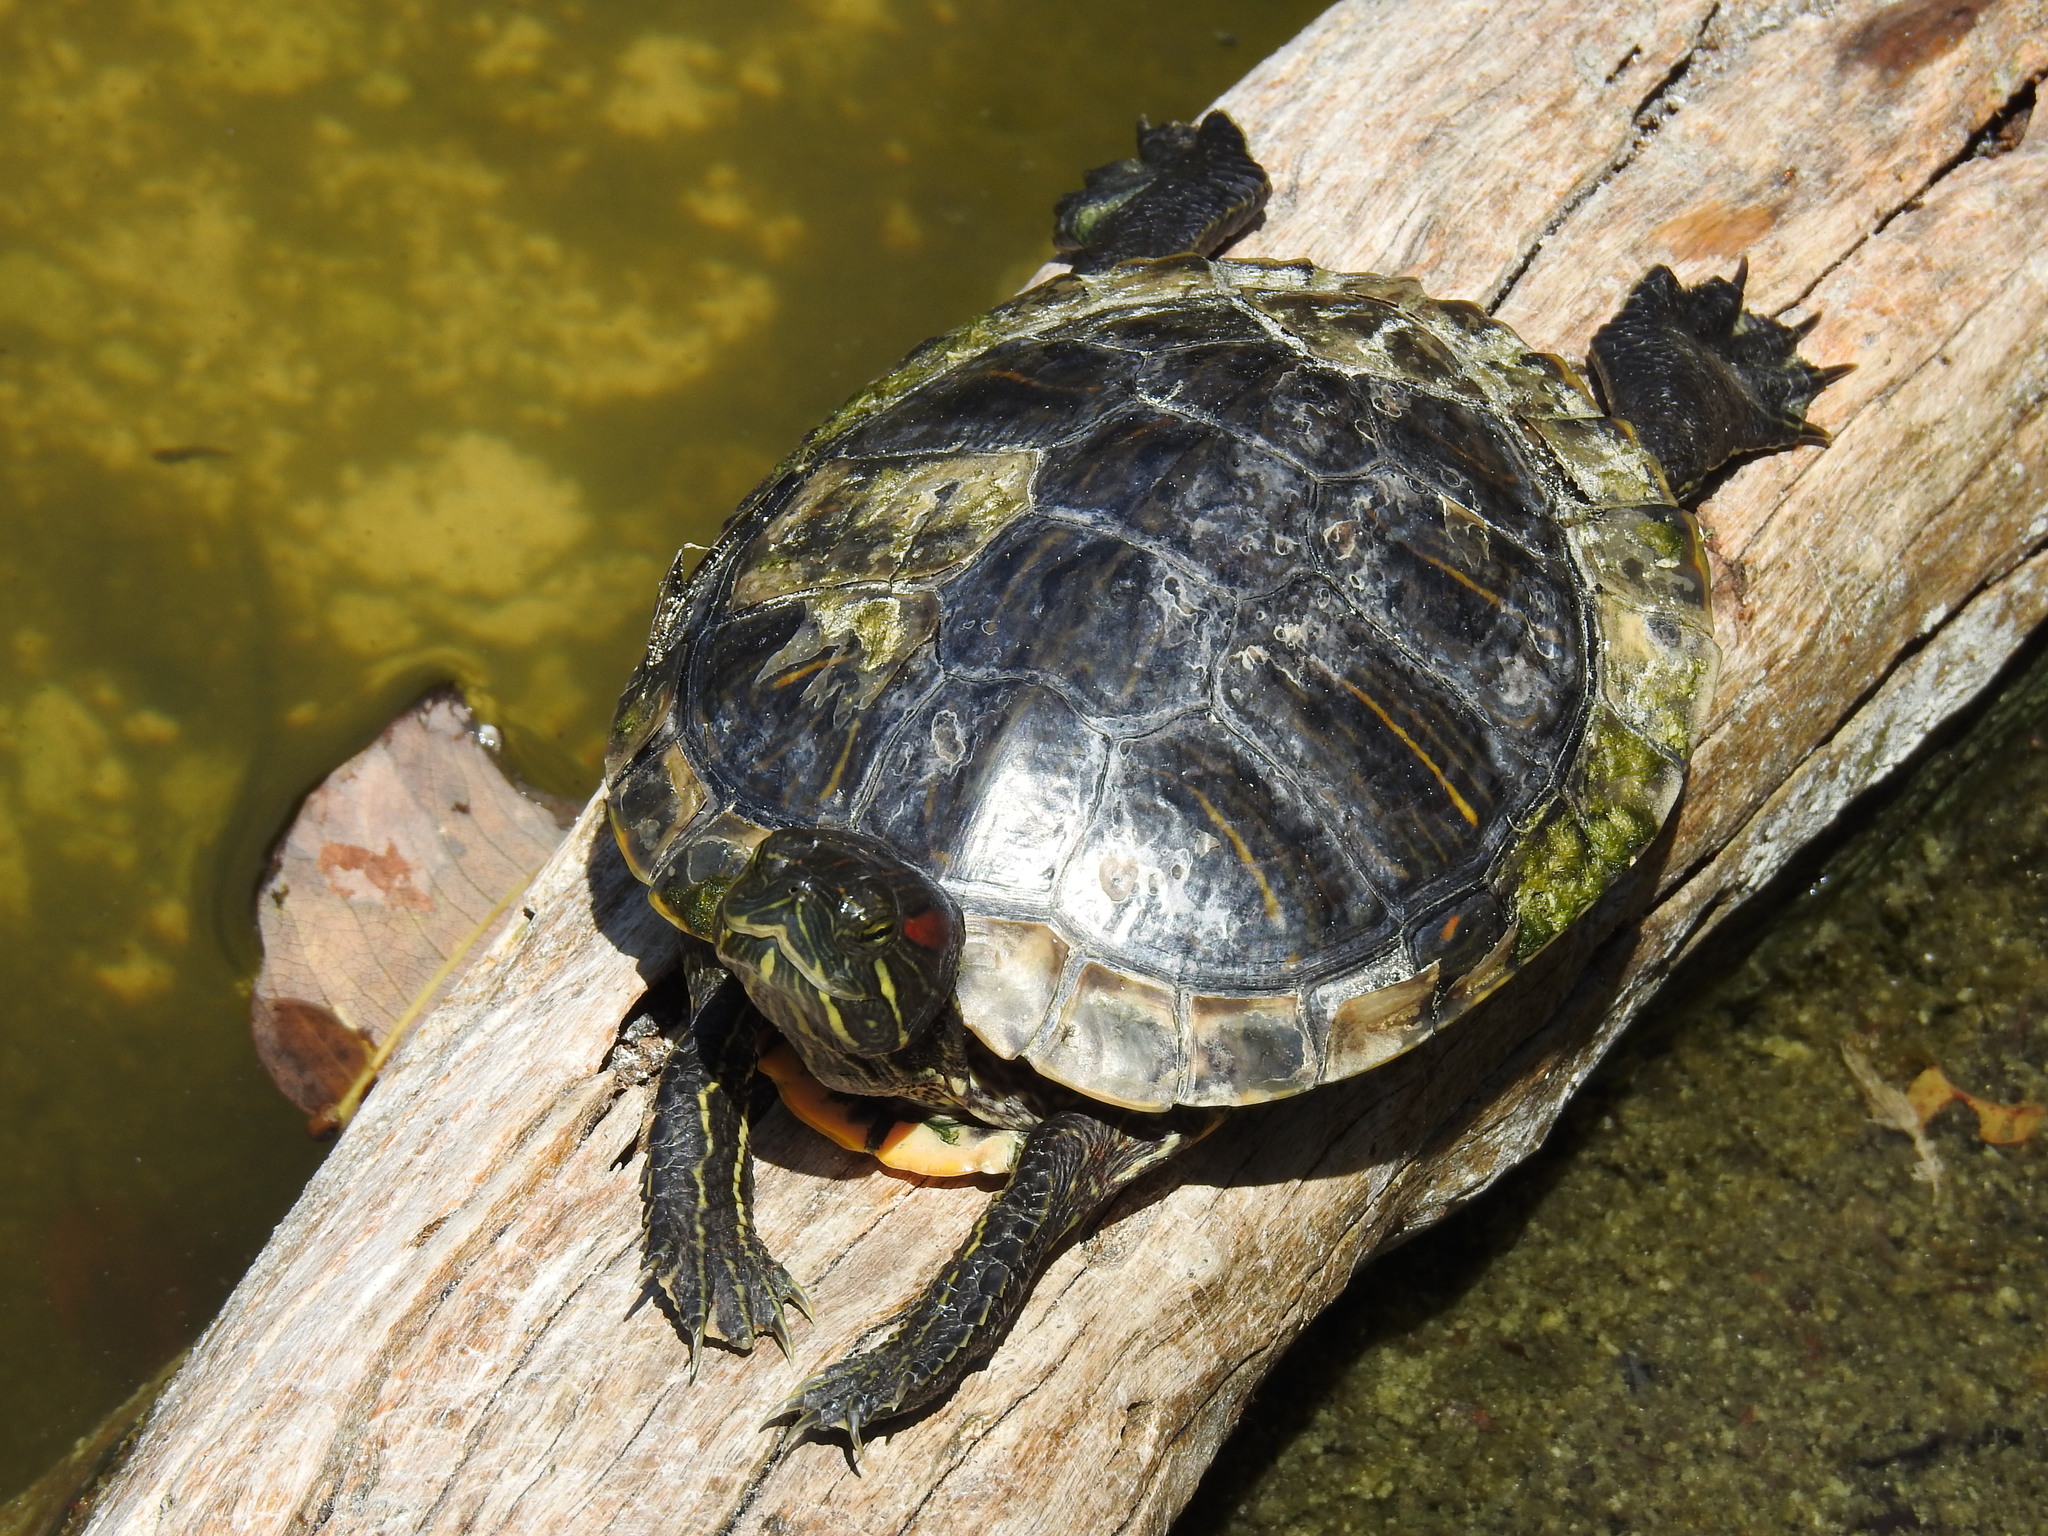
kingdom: Animalia
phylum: Chordata
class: Testudines
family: Emydidae
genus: Trachemys
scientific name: Trachemys scripta
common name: Slider
